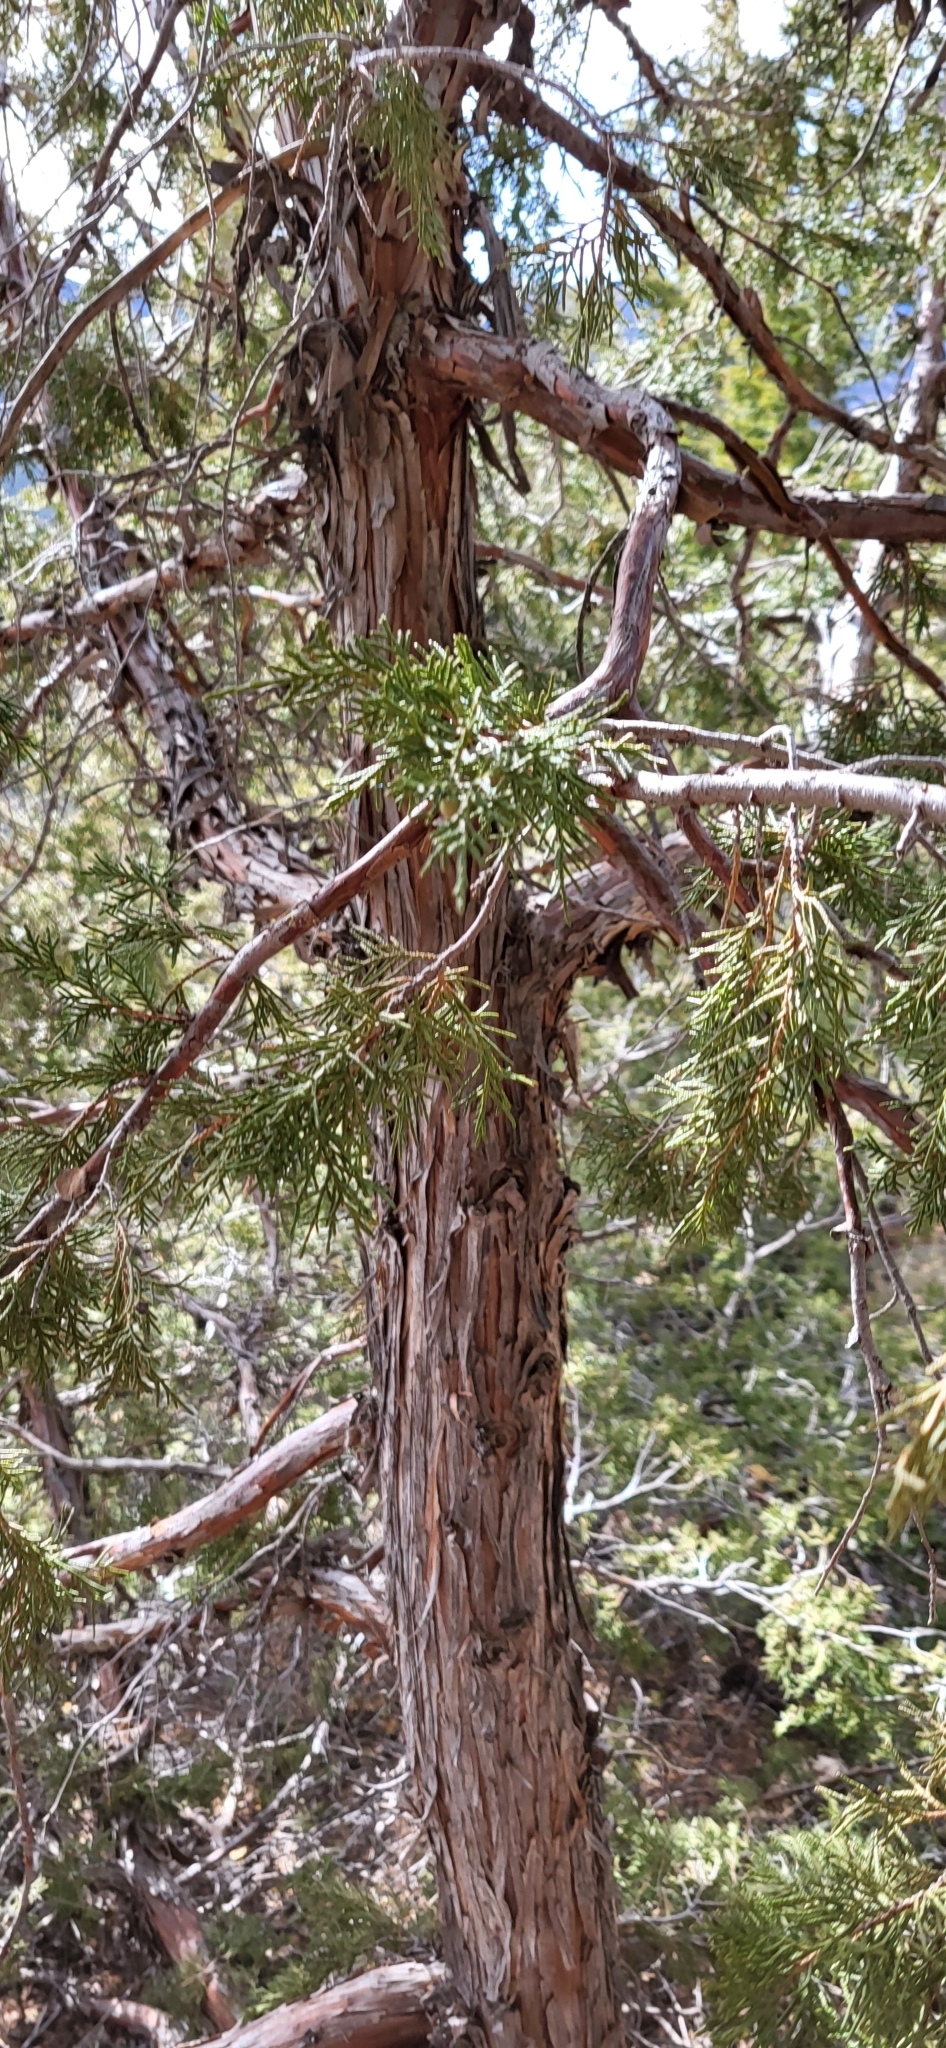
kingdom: Plantae
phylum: Tracheophyta
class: Pinopsida
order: Pinales
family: Cupressaceae
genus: Juniperus
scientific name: Juniperus scopulorum
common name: Rocky mountain juniper
